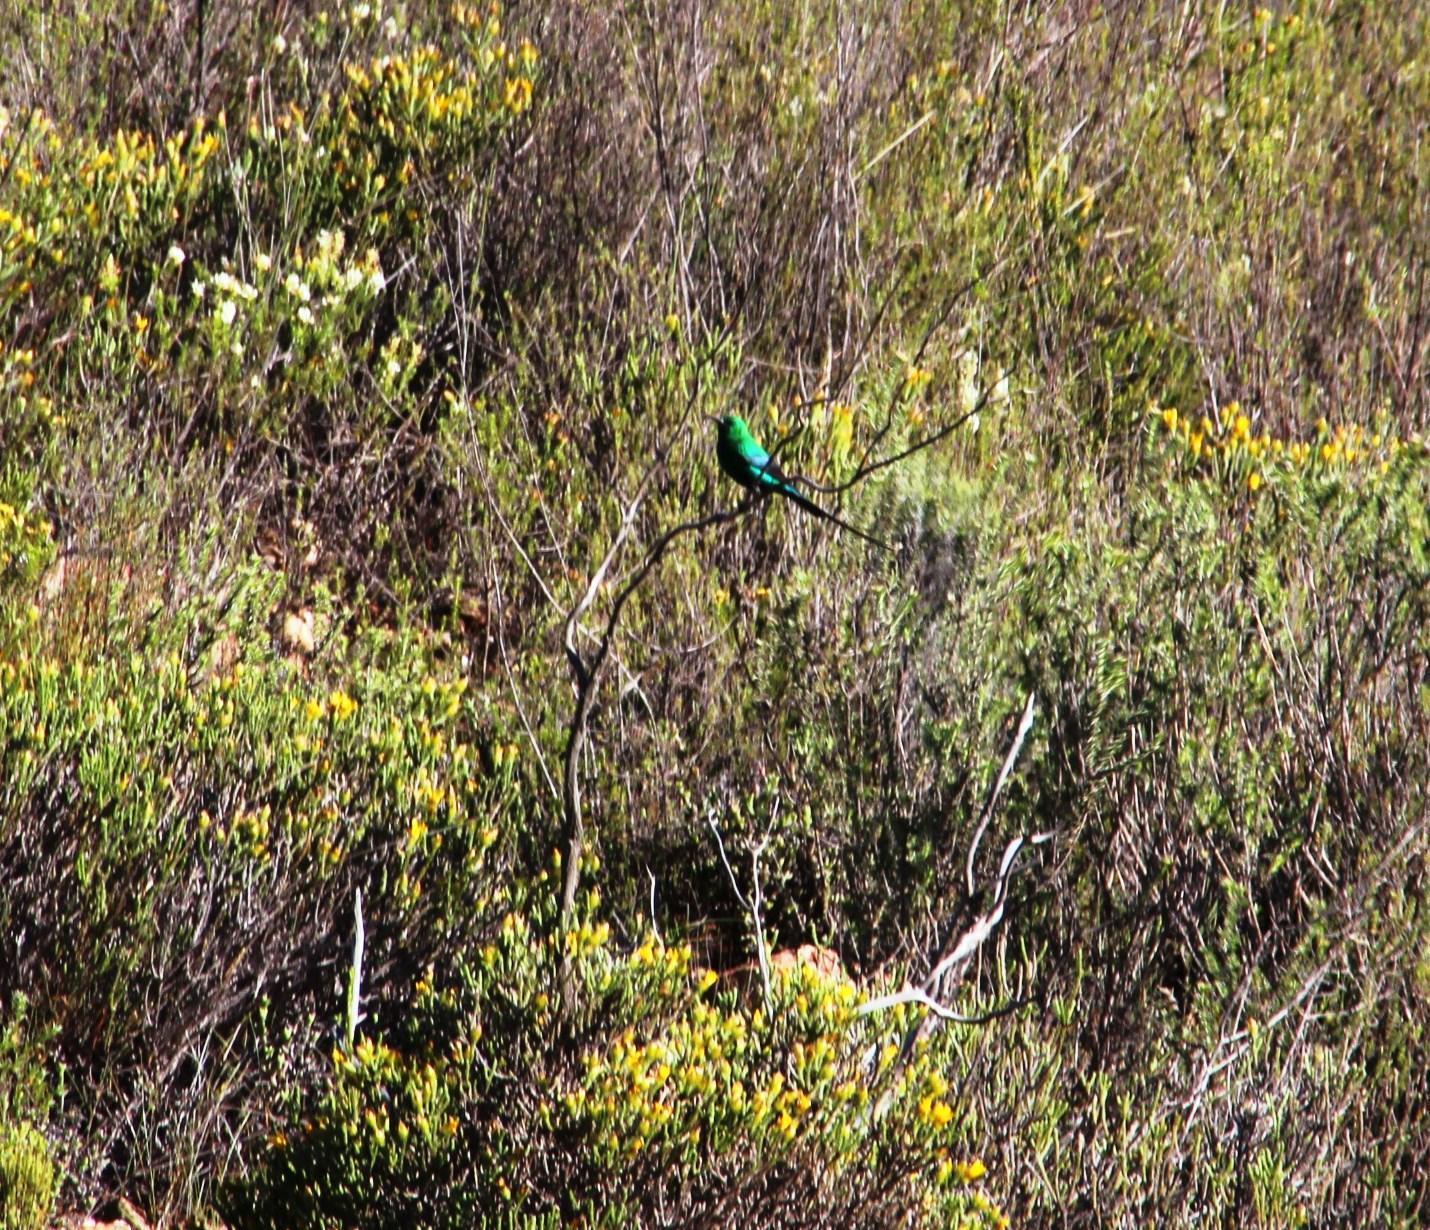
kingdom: Animalia
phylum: Chordata
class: Aves
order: Passeriformes
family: Nectariniidae
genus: Nectarinia
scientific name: Nectarinia famosa
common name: Malachite sunbird
